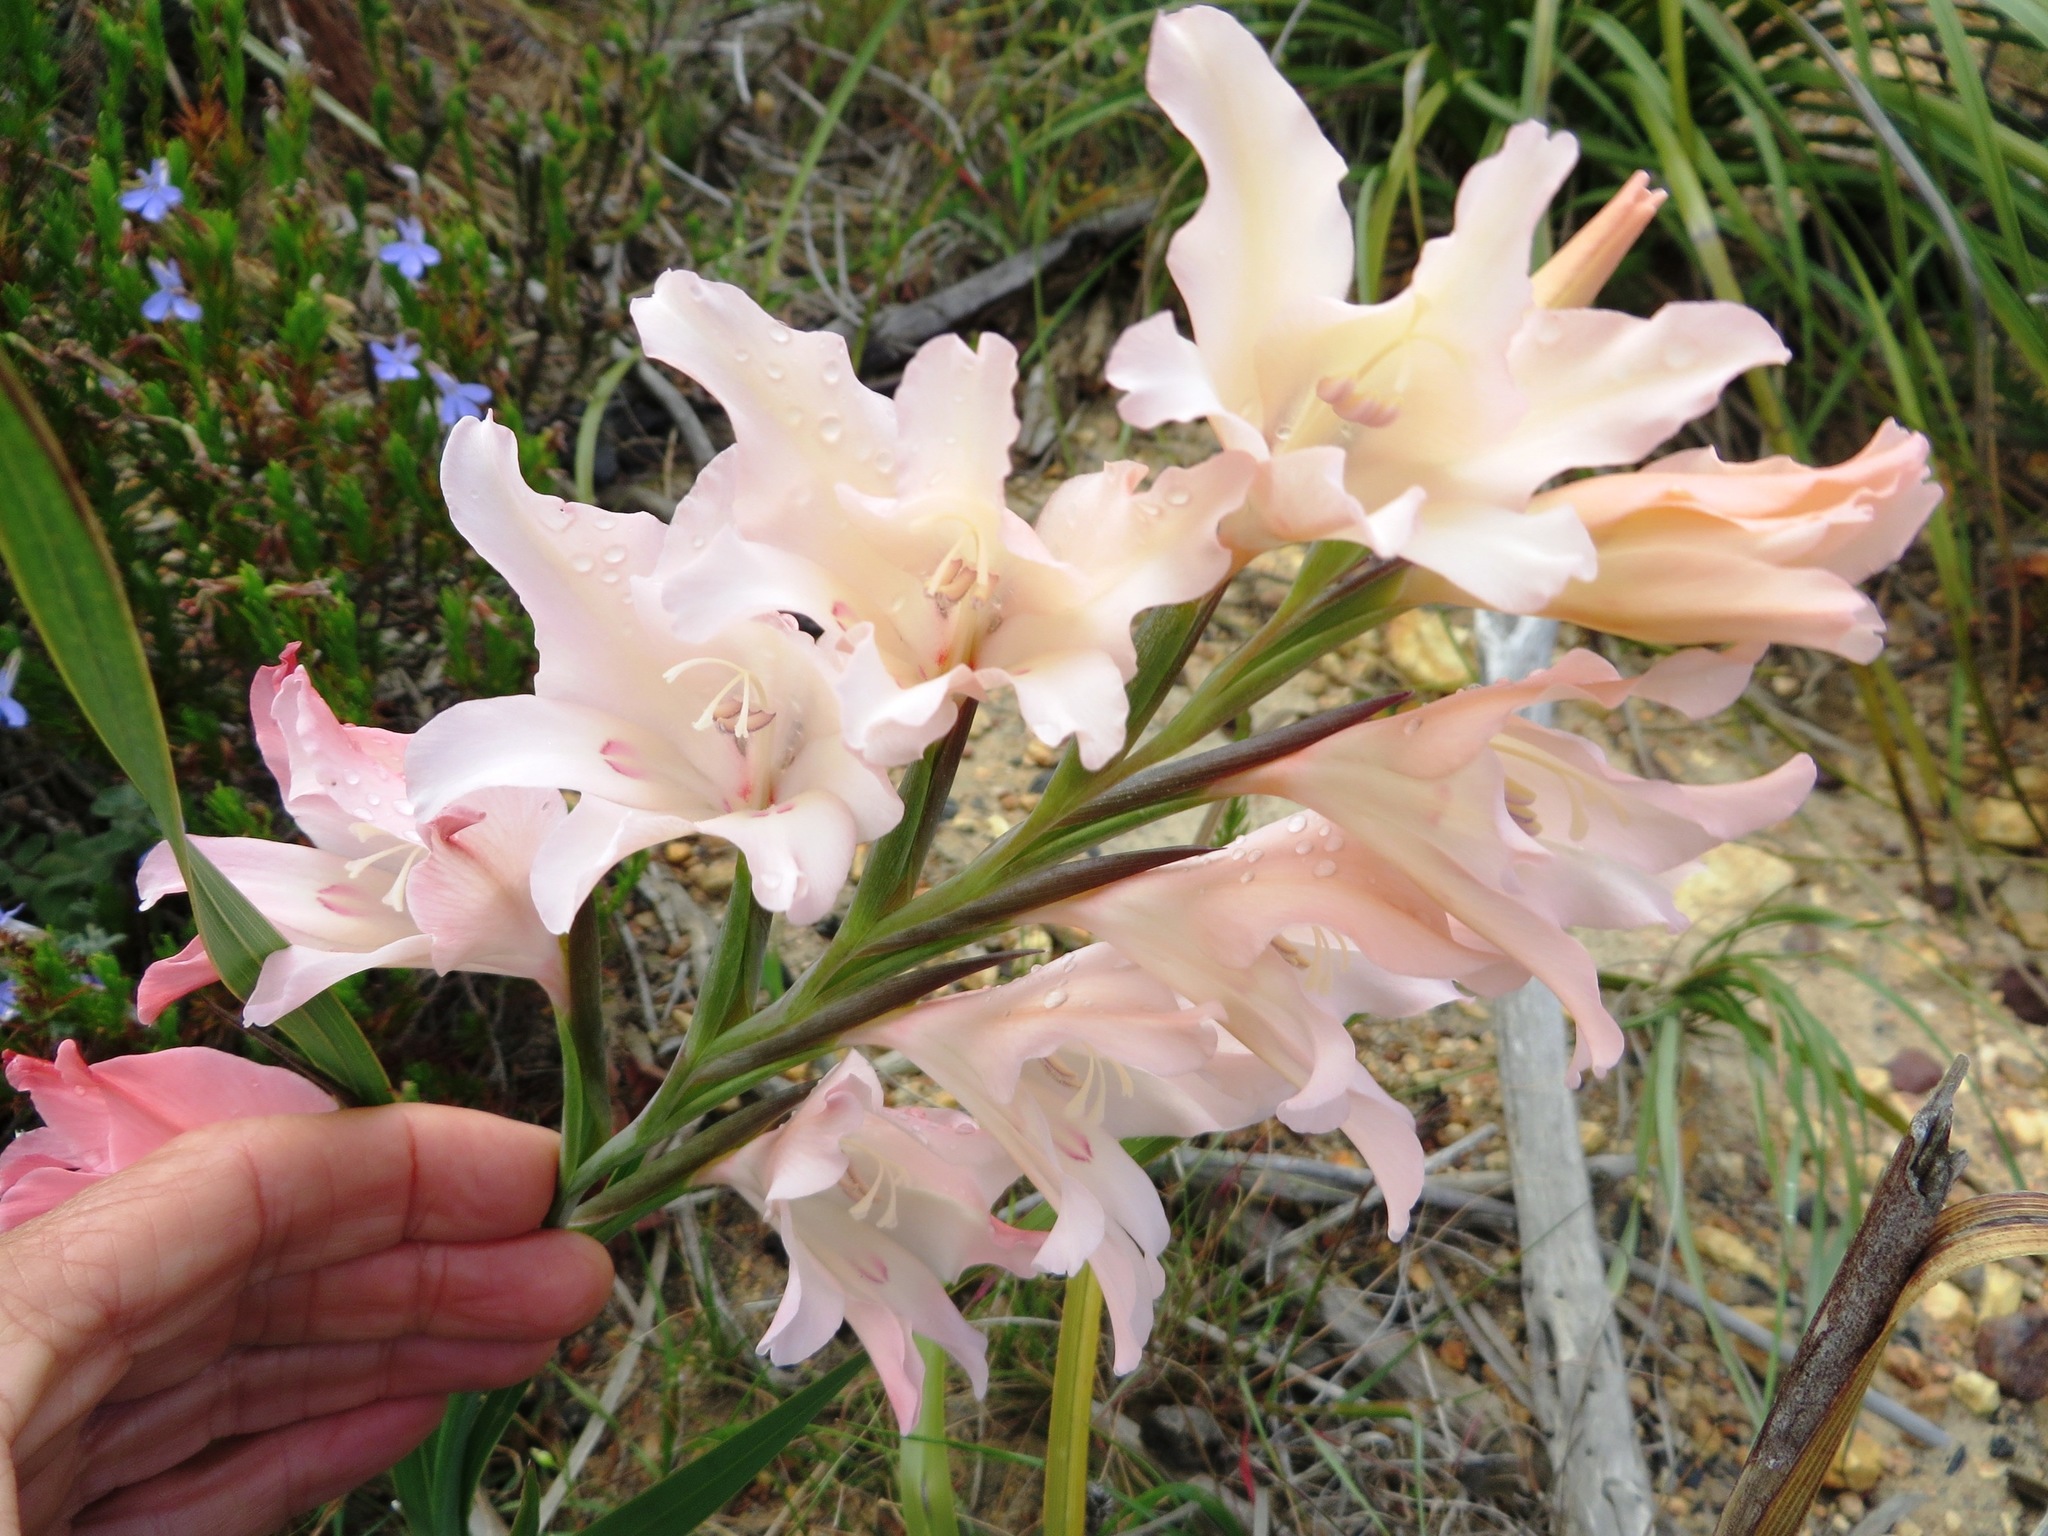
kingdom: Plantae
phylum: Tracheophyta
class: Liliopsida
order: Asparagales
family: Iridaceae
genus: Gladiolus
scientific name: Gladiolus carneus
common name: Painted-lady
